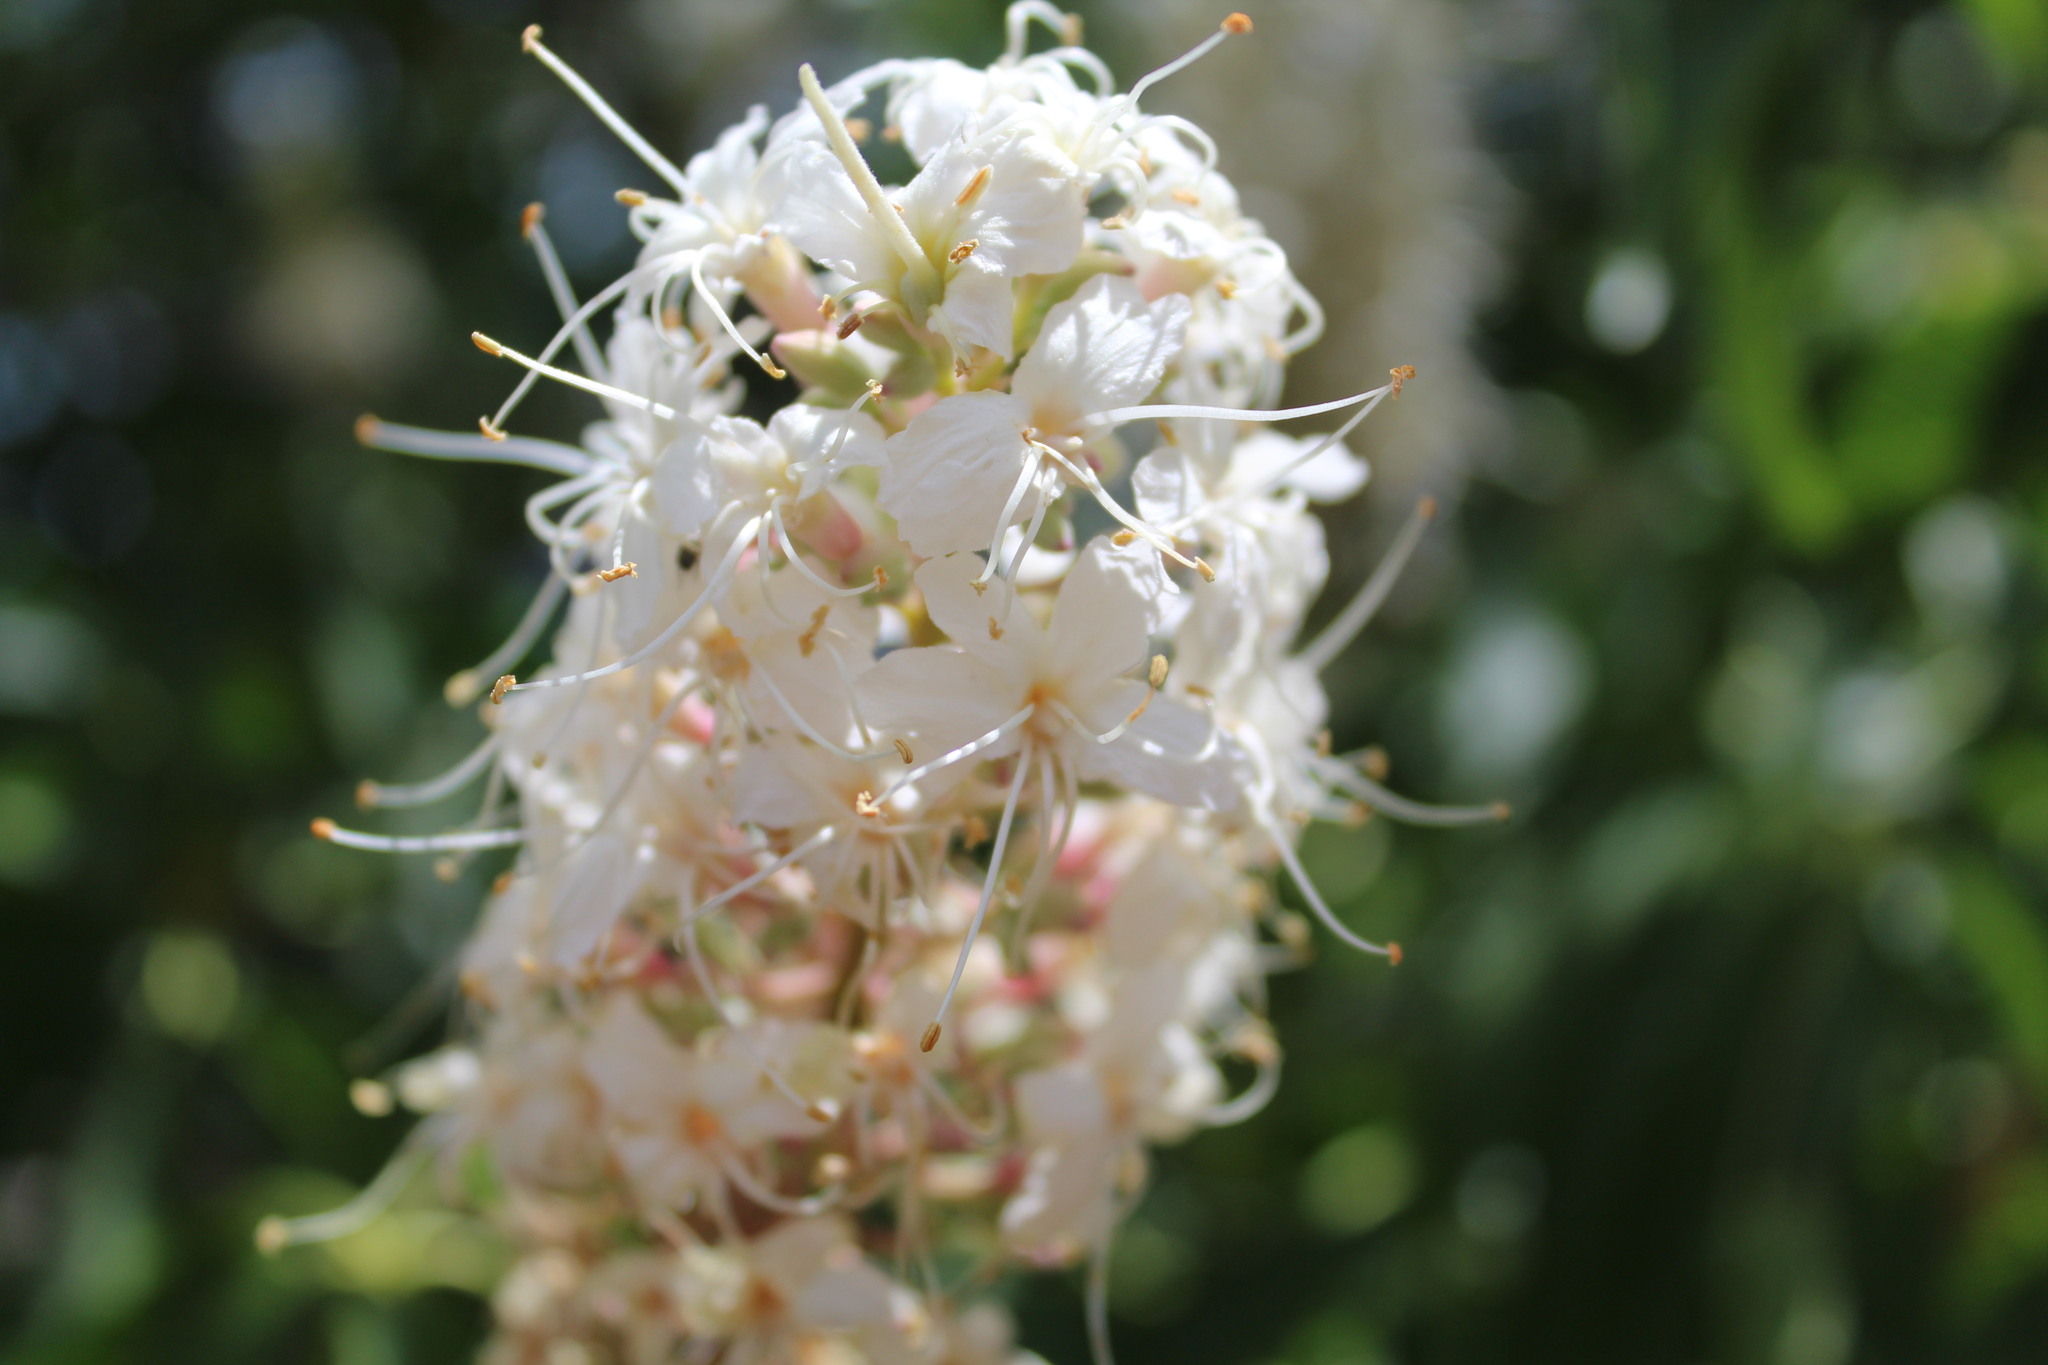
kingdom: Plantae
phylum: Tracheophyta
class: Magnoliopsida
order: Sapindales
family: Sapindaceae
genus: Aesculus
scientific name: Aesculus californica
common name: California buckeye
